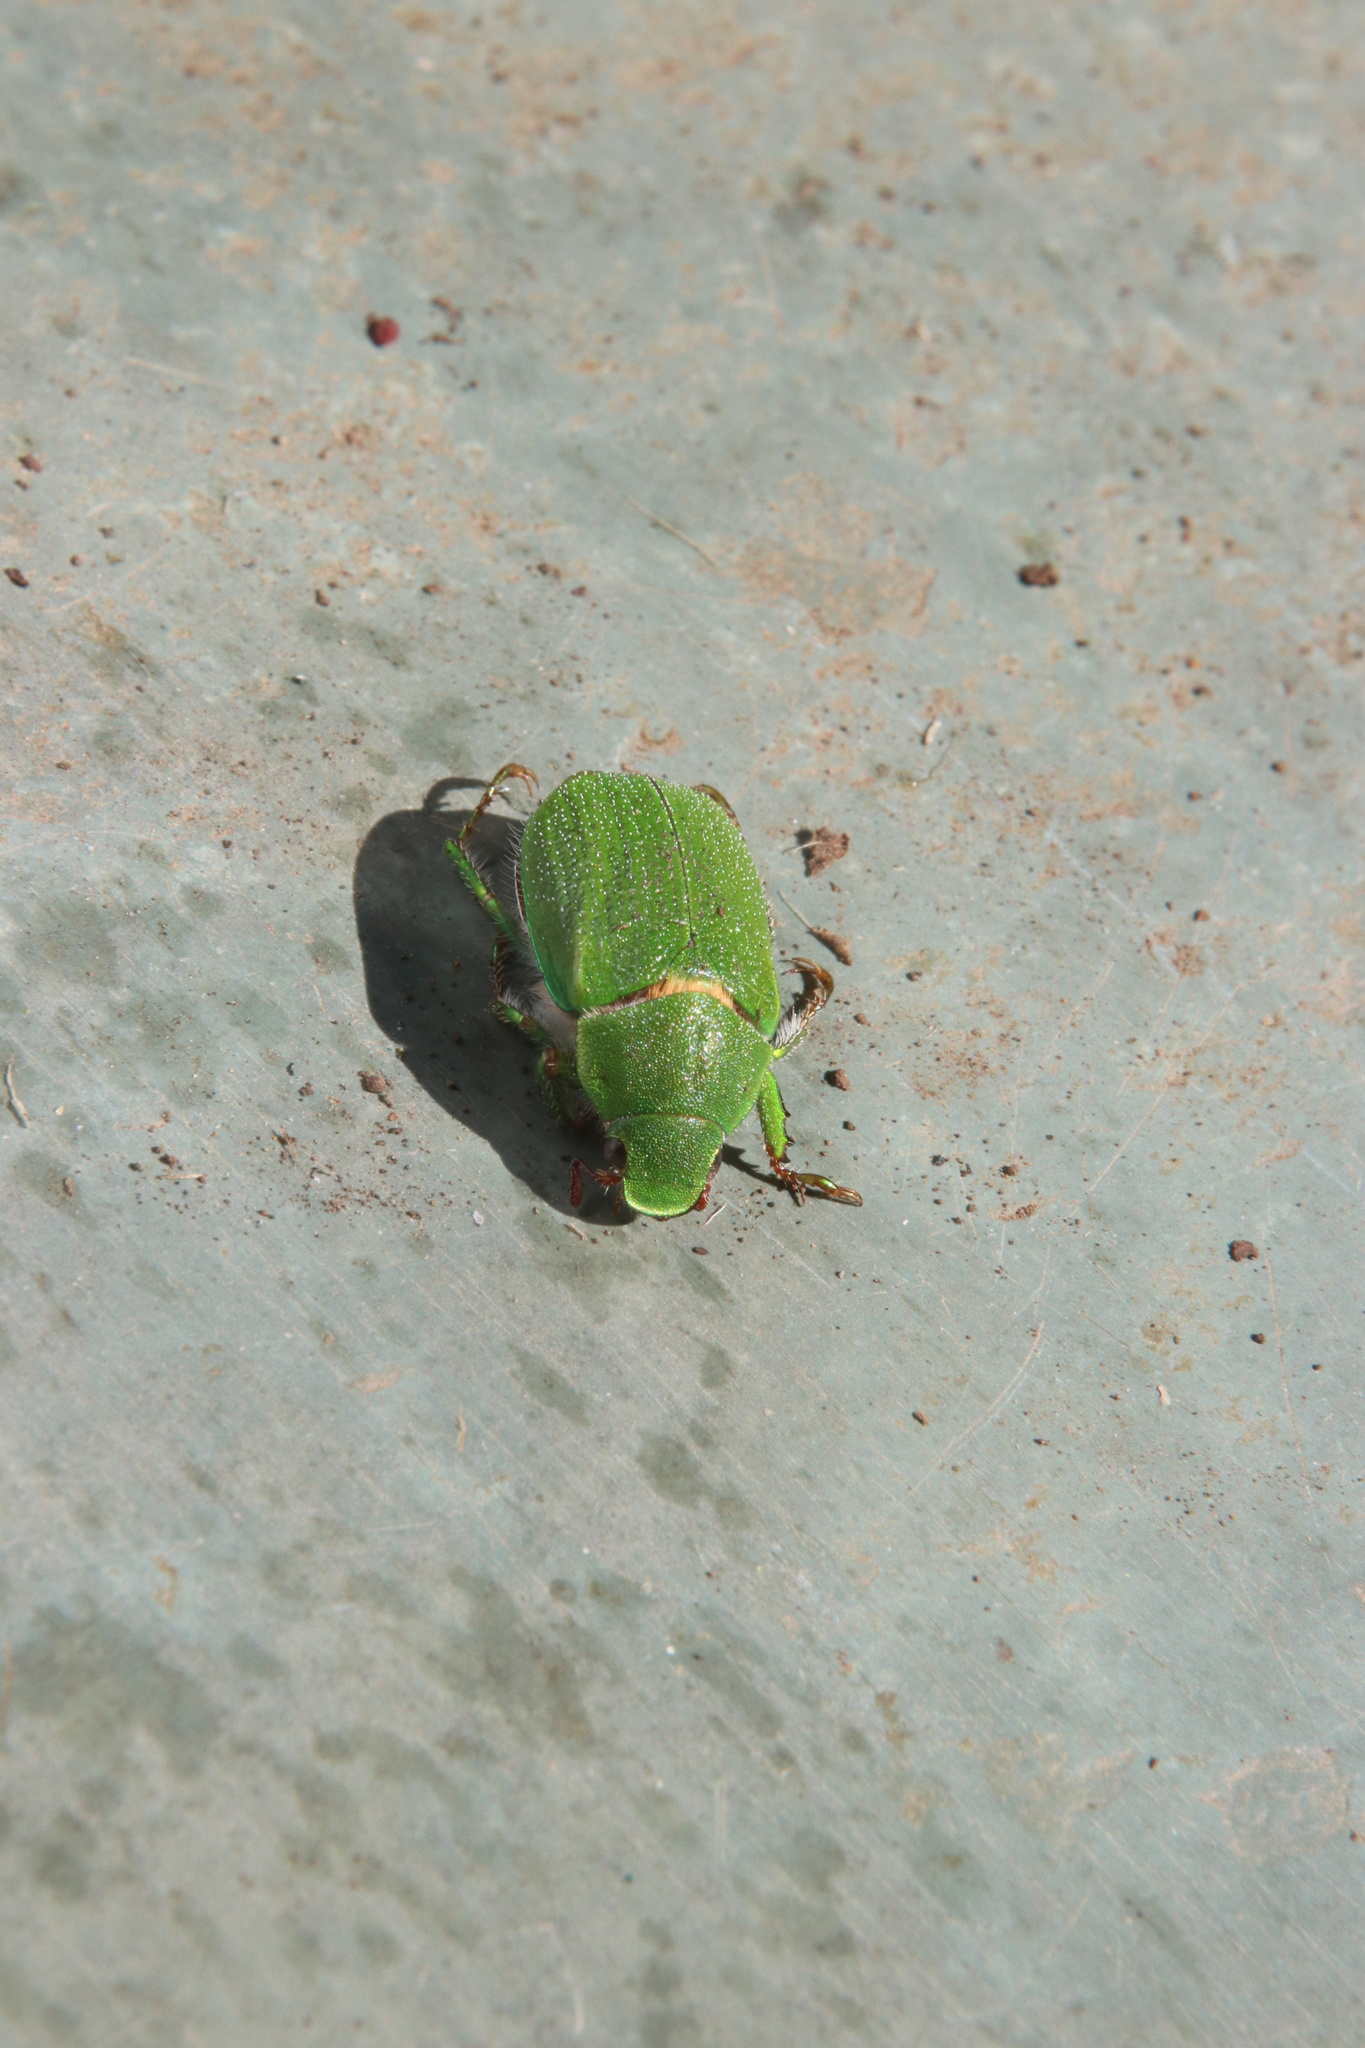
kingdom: Animalia
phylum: Arthropoda
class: Insecta
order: Coleoptera
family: Scarabaeidae
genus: Hylamorpha
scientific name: Hylamorpha elegans
